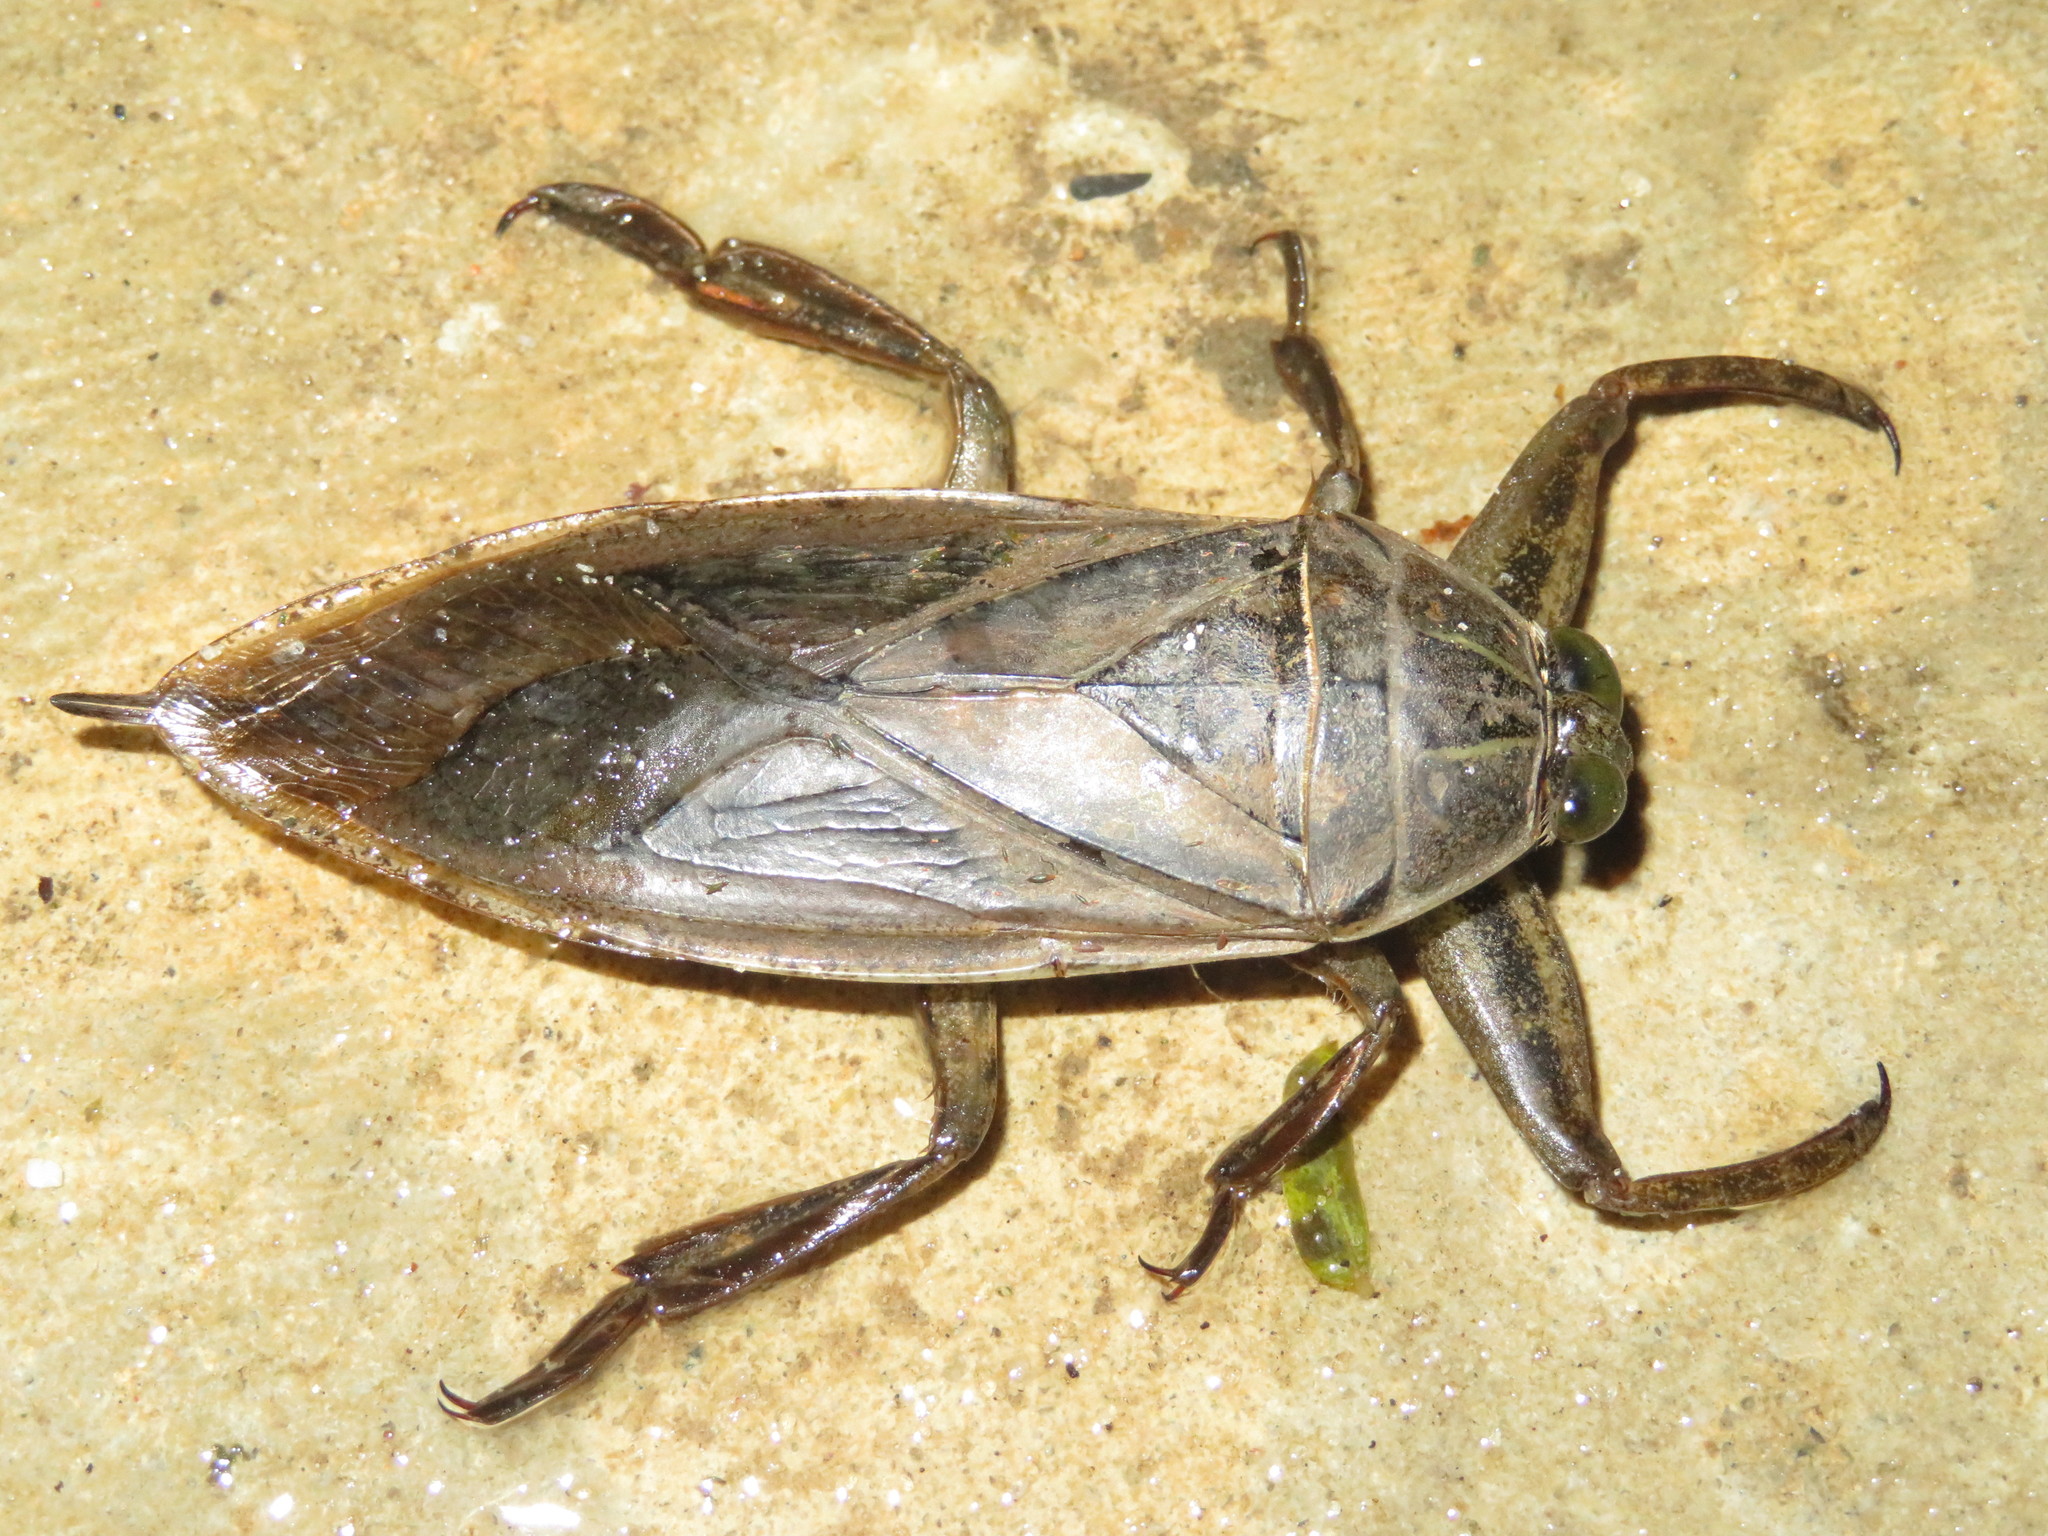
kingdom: Animalia
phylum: Arthropoda
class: Insecta
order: Hemiptera
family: Belostomatidae
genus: Lethocerus
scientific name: Lethocerus cordofanus
